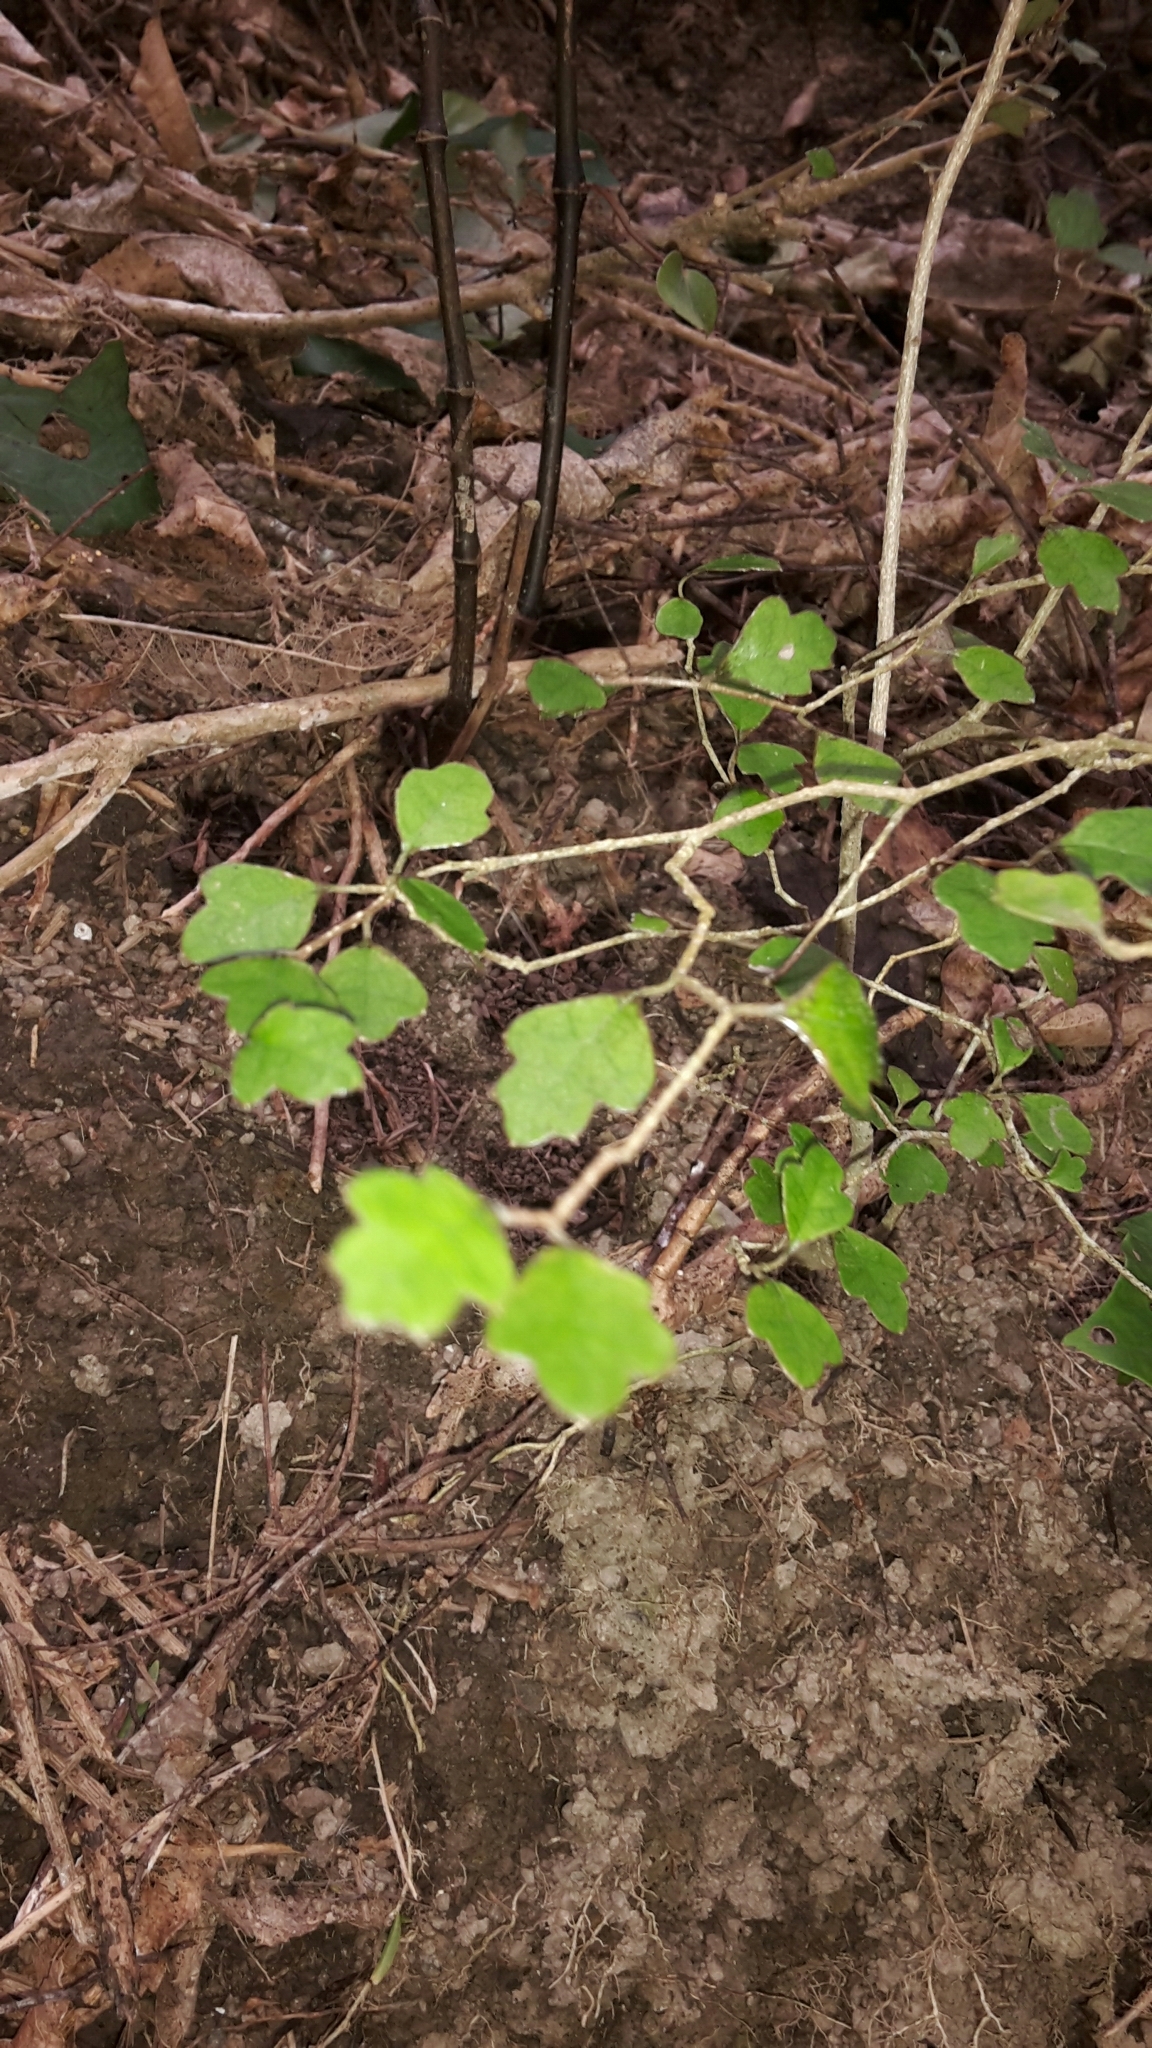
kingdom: Plantae
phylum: Tracheophyta
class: Magnoliopsida
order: Apiales
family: Pennantiaceae
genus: Pennantia
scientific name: Pennantia corymbosa
